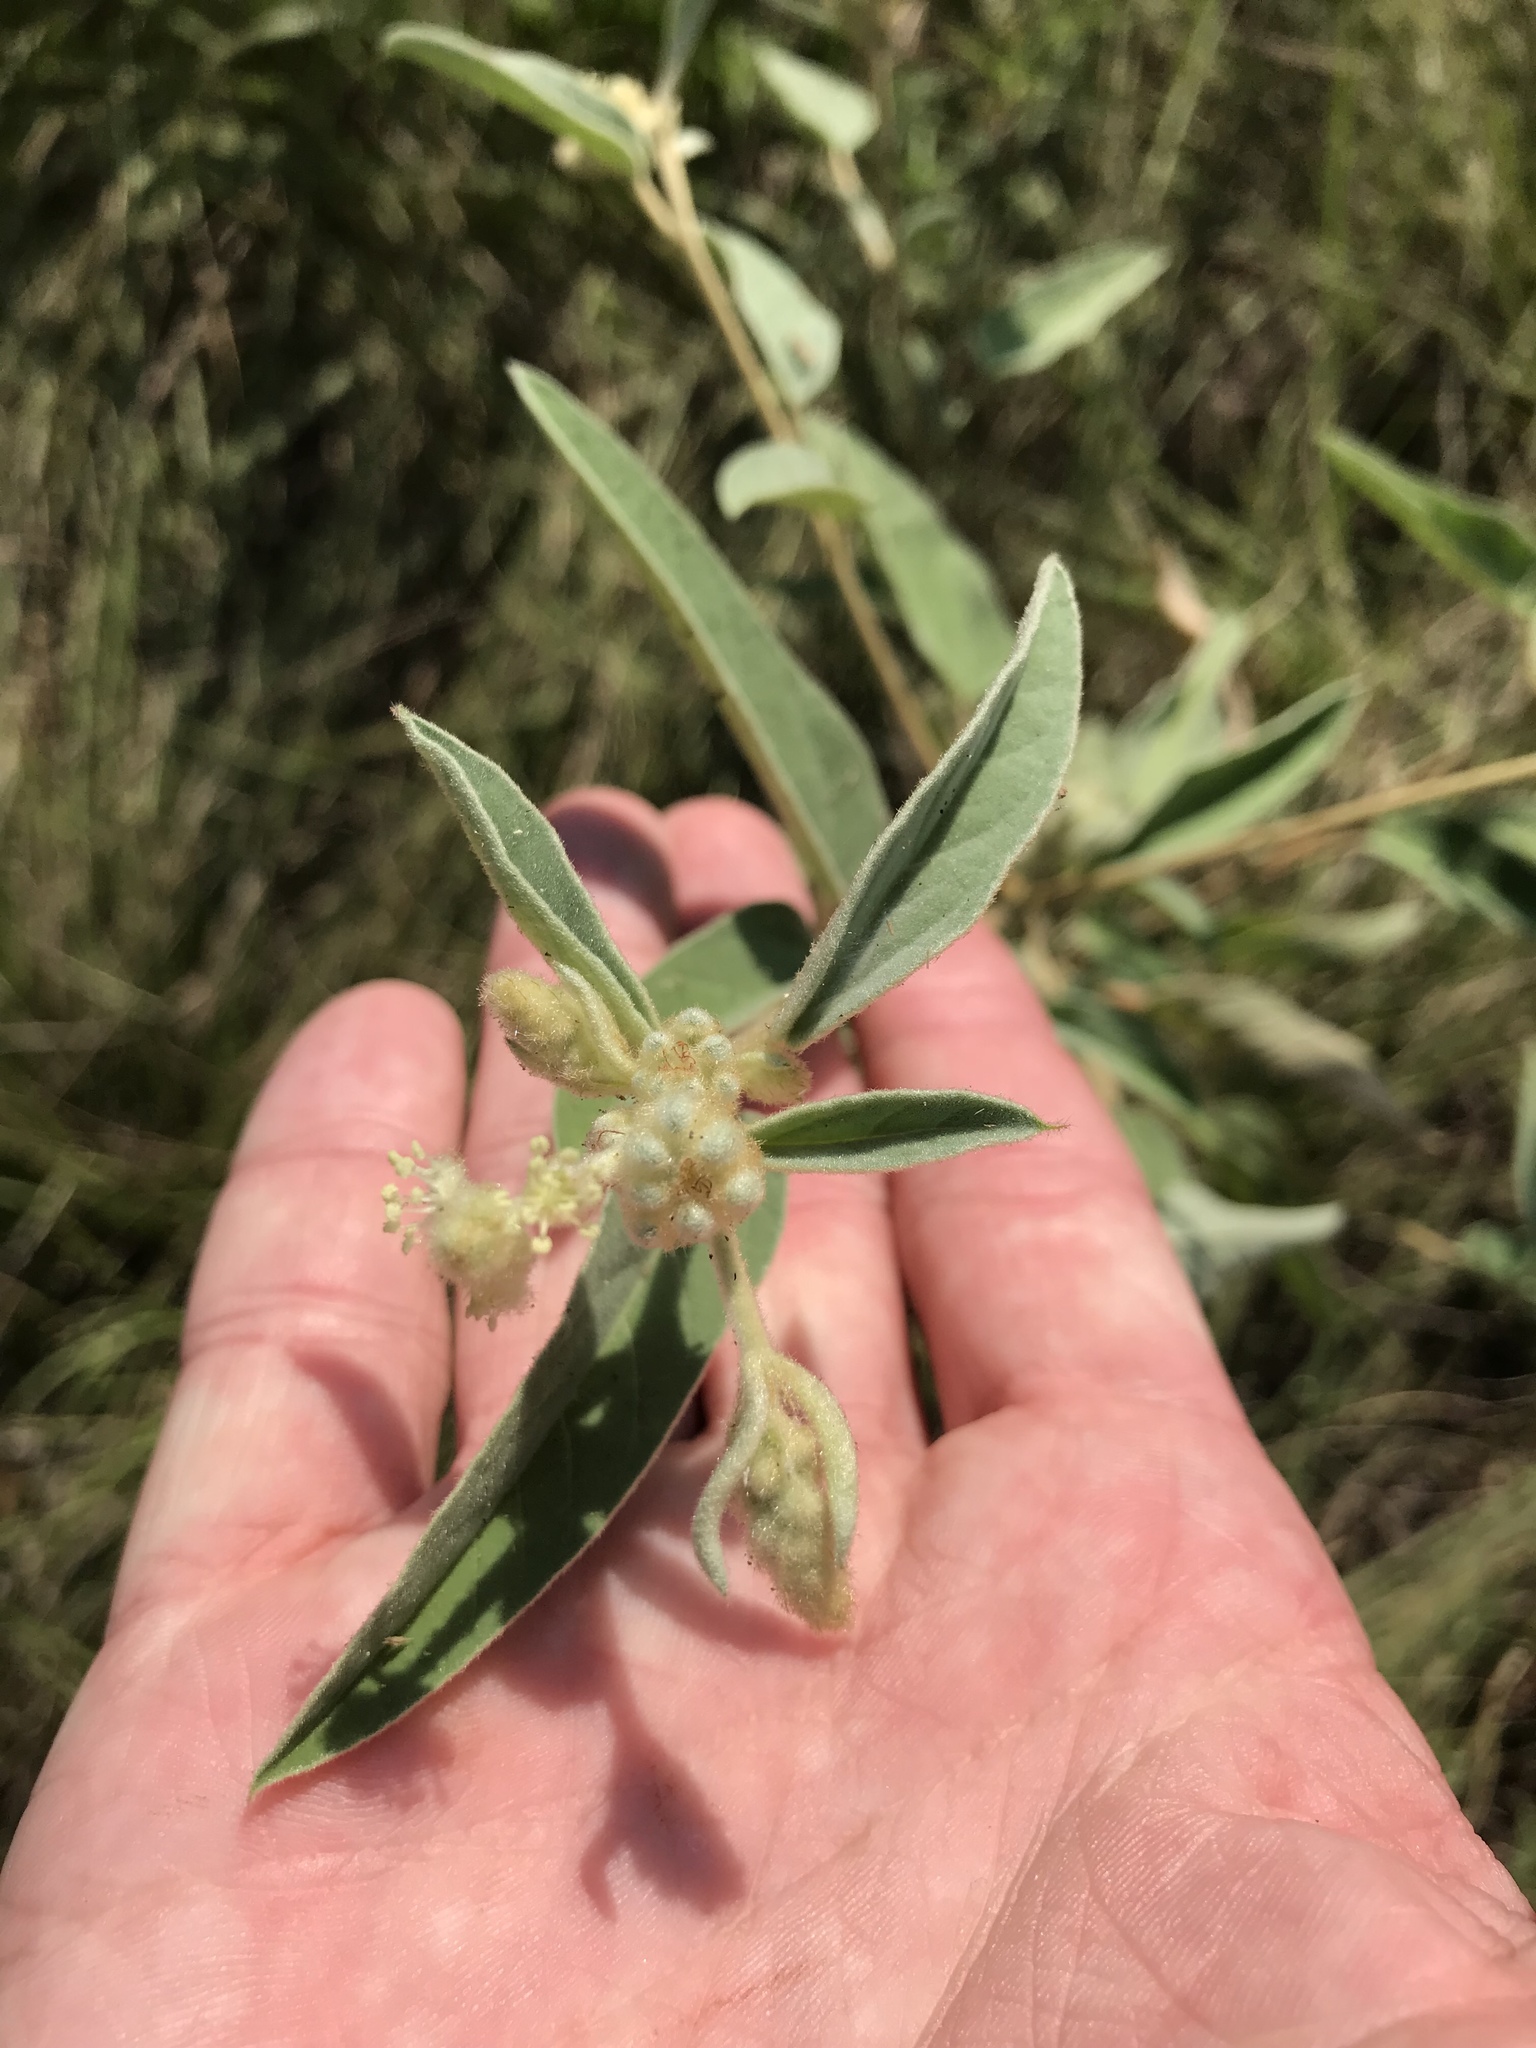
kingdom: Plantae
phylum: Tracheophyta
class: Magnoliopsida
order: Malpighiales
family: Euphorbiaceae
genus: Croton
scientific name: Croton lindheimeri
